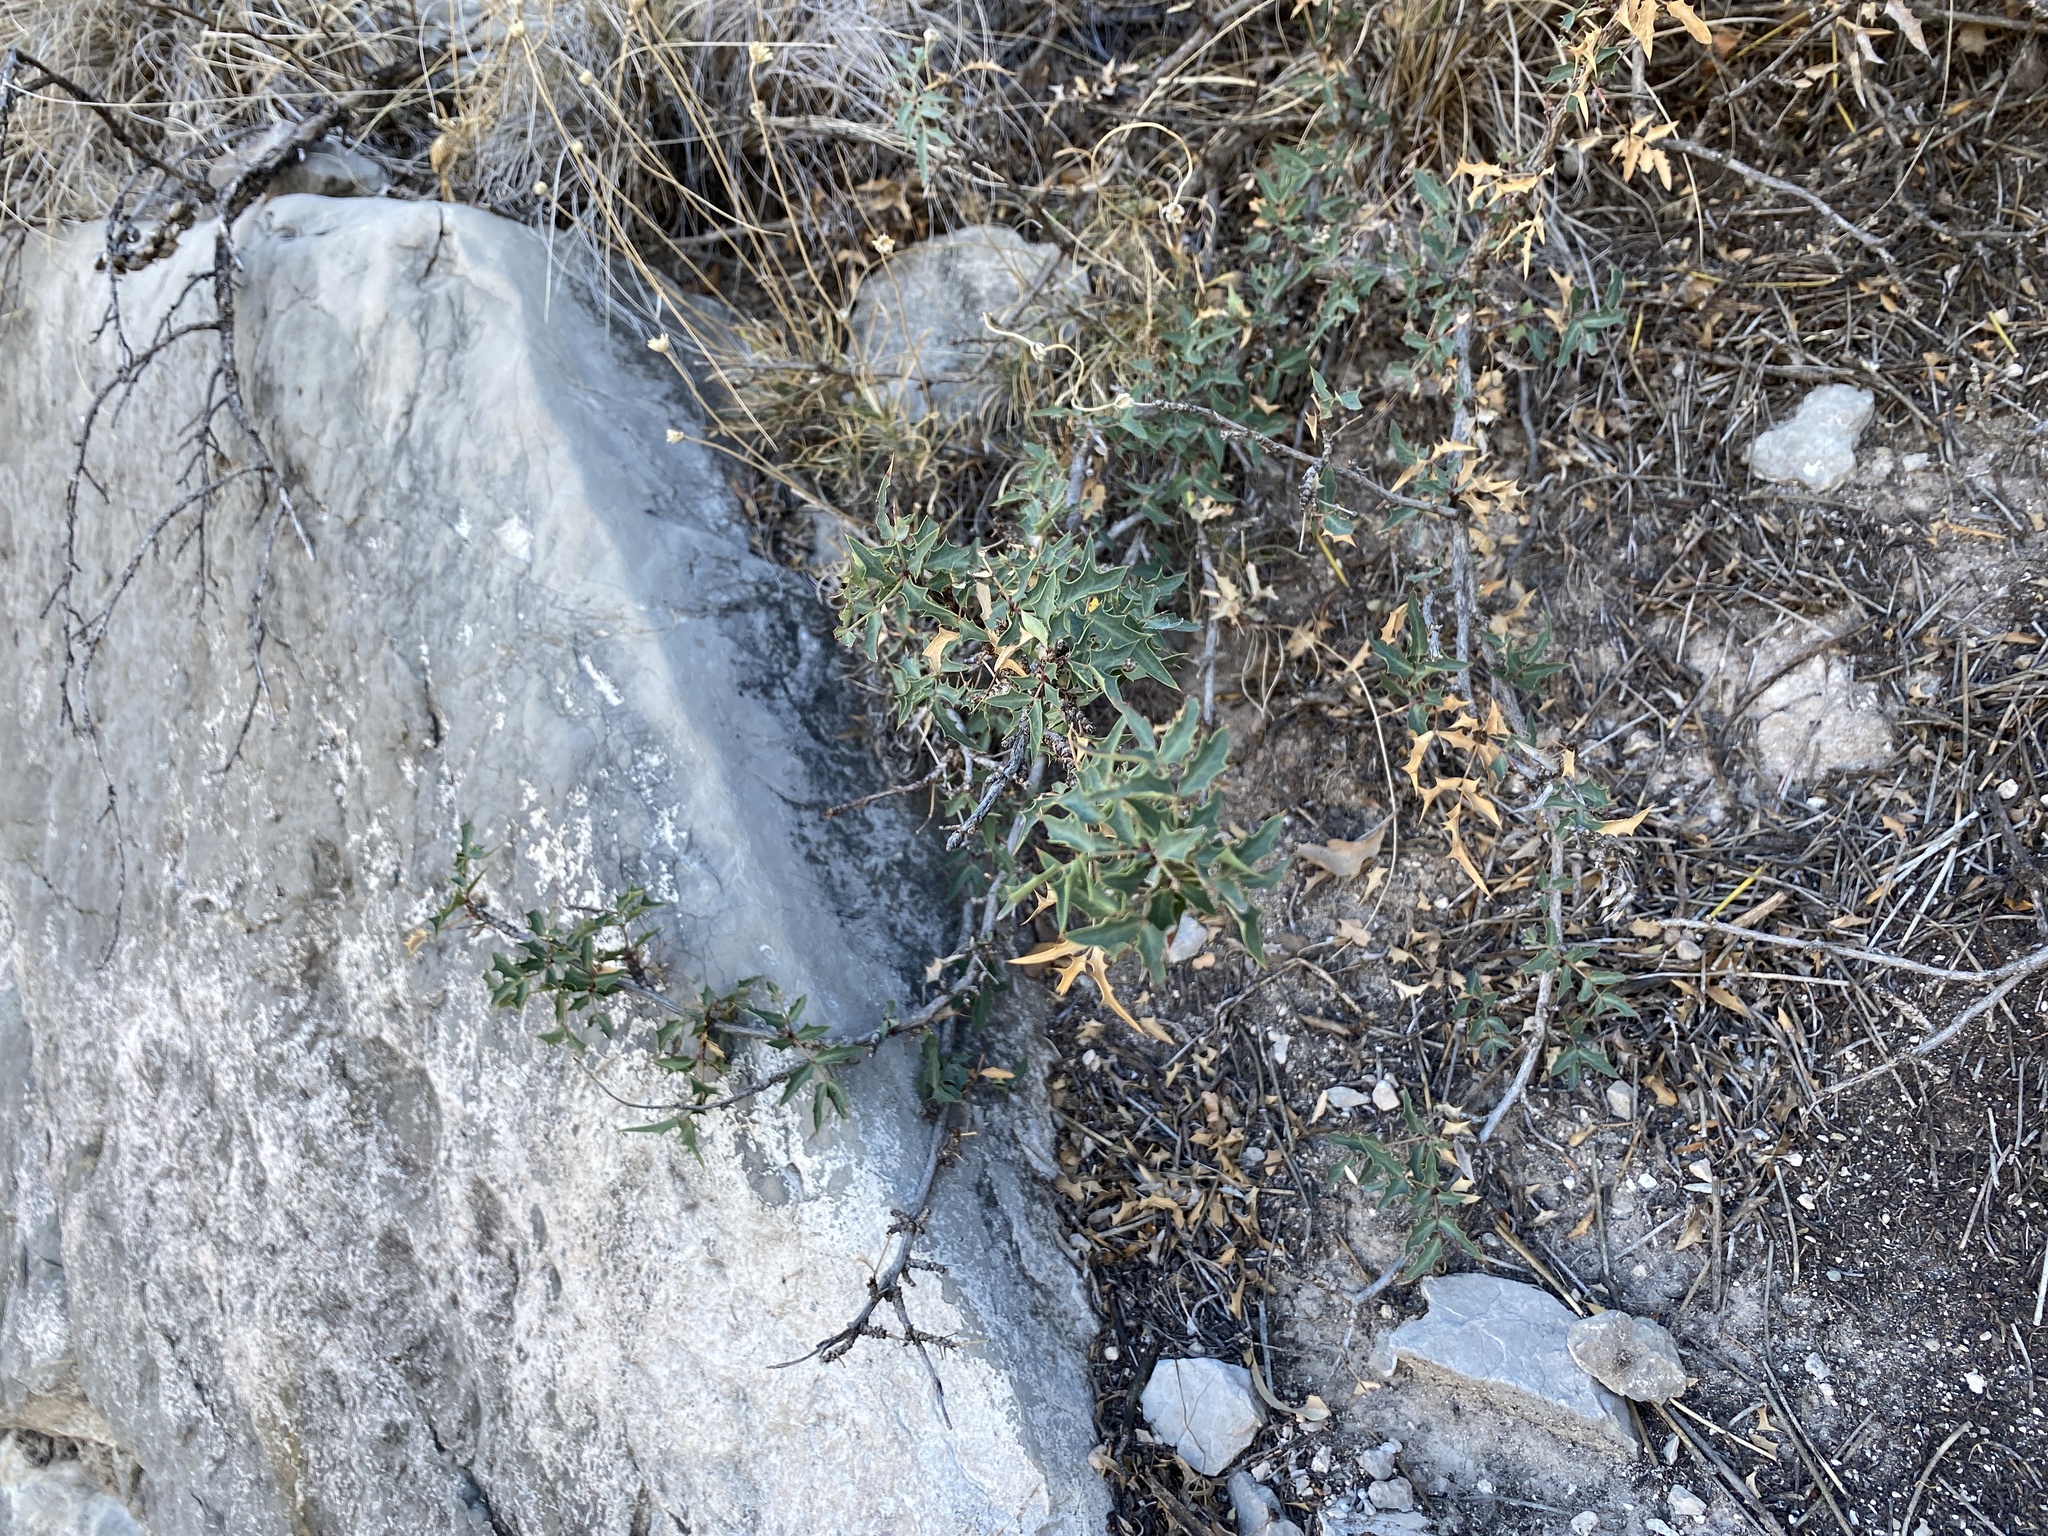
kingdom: Plantae
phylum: Tracheophyta
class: Magnoliopsida
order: Ranunculales
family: Berberidaceae
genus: Alloberberis
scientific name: Alloberberis haematocarpa
